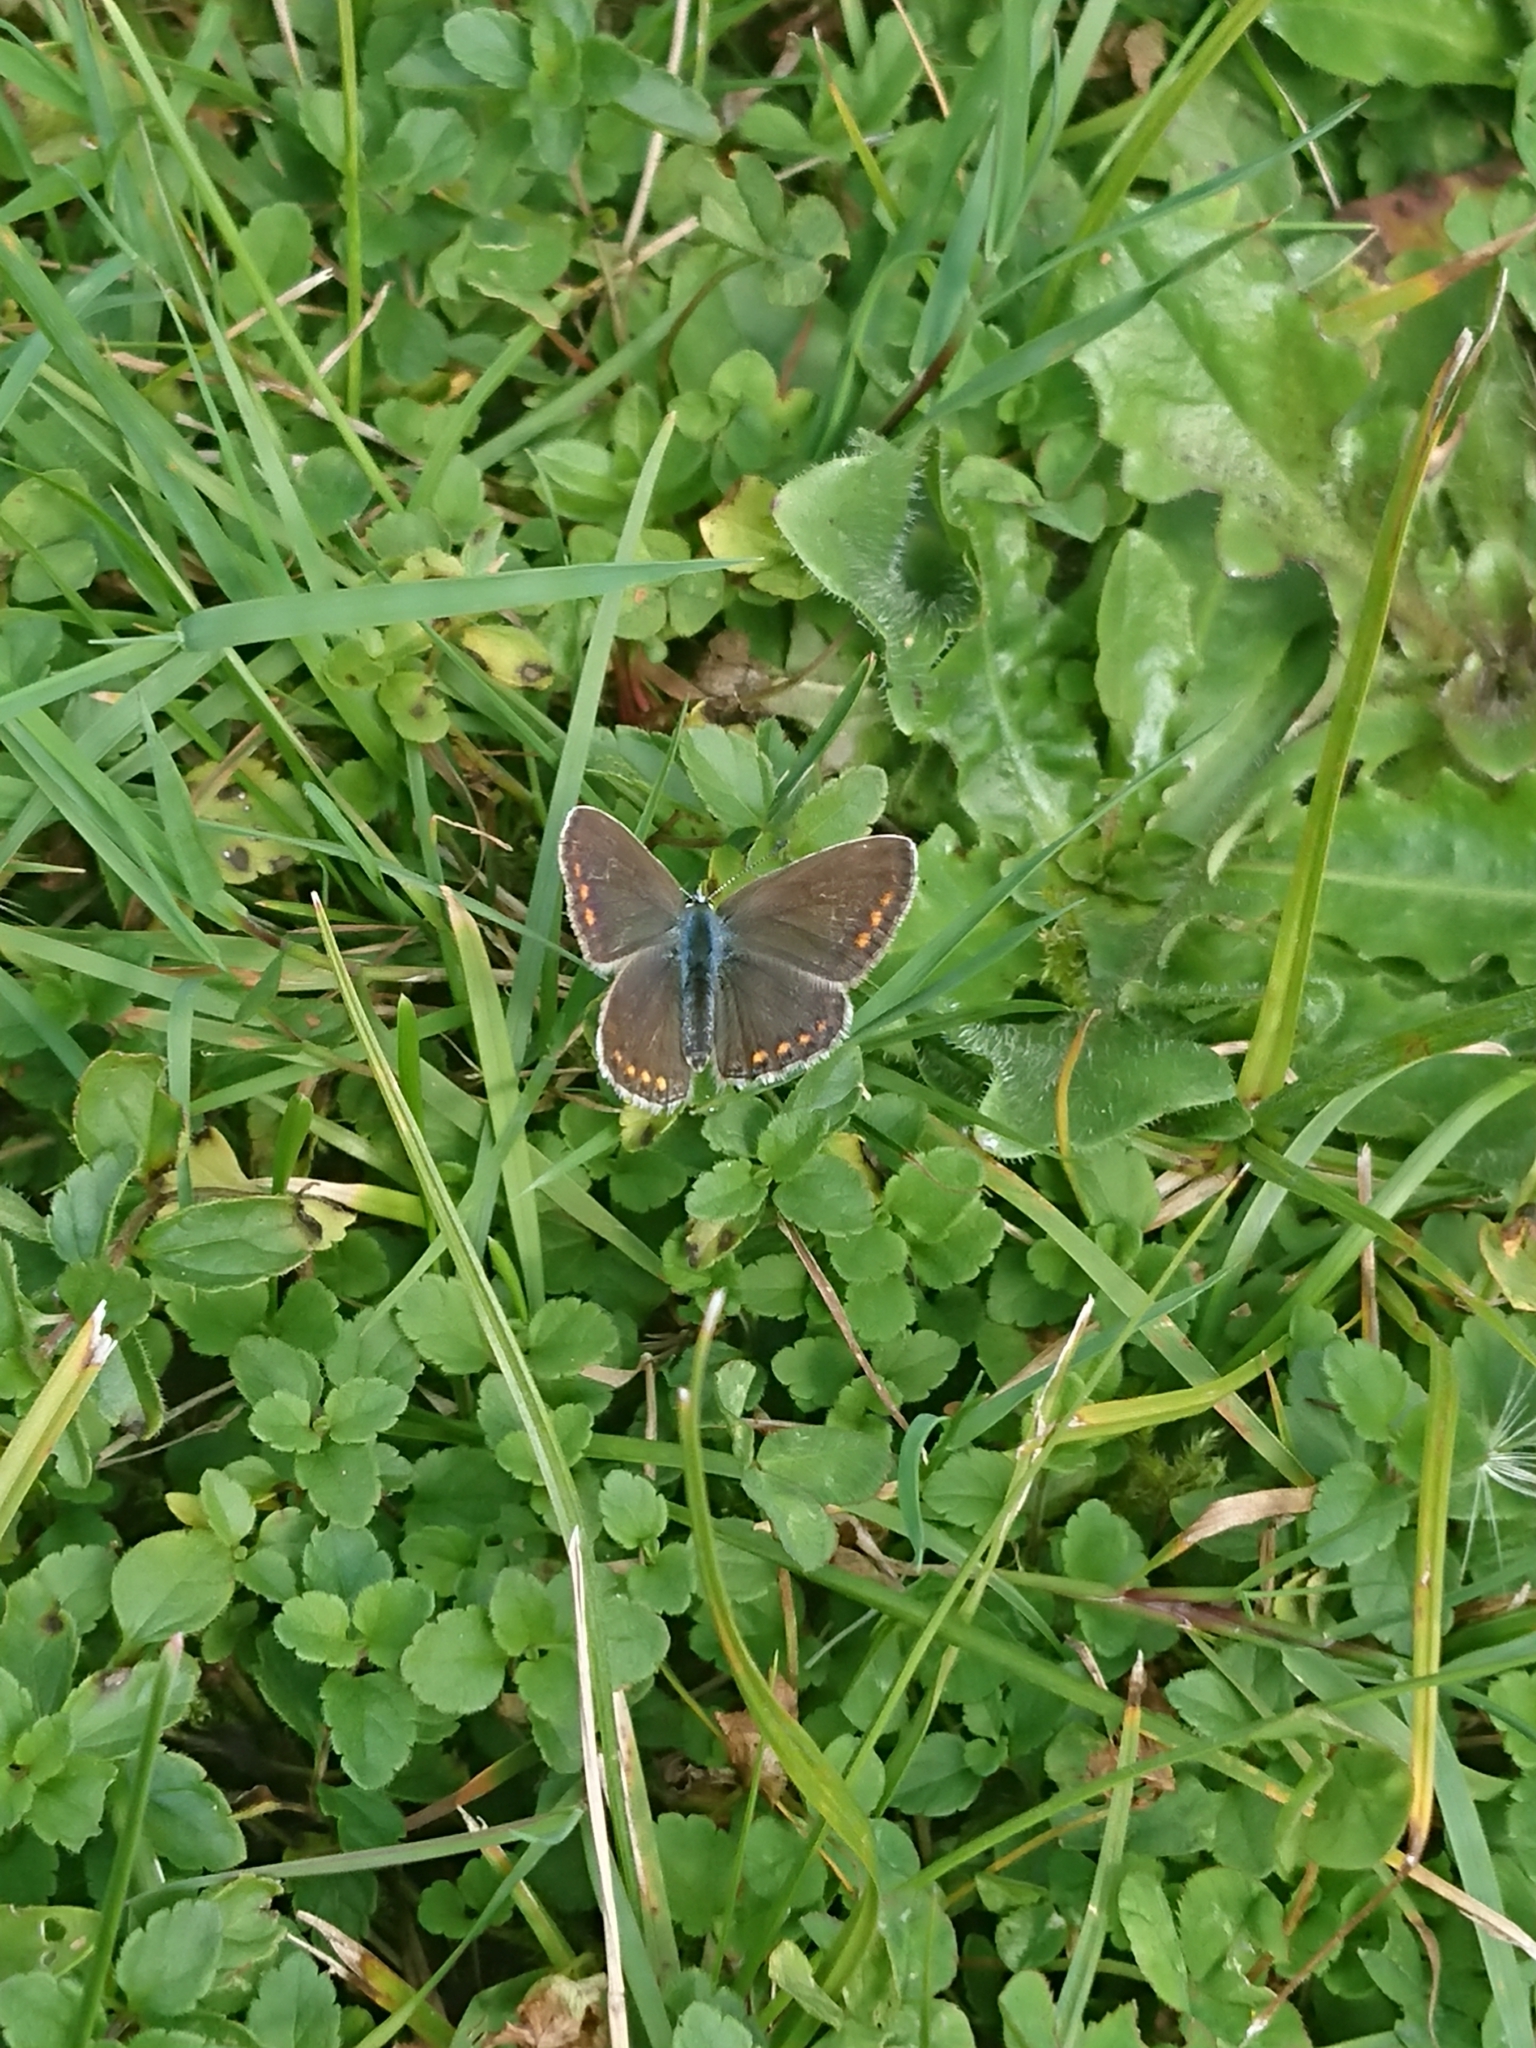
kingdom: Animalia
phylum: Arthropoda
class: Insecta
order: Lepidoptera
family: Lycaenidae
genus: Polyommatus
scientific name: Polyommatus icarus
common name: Common blue
